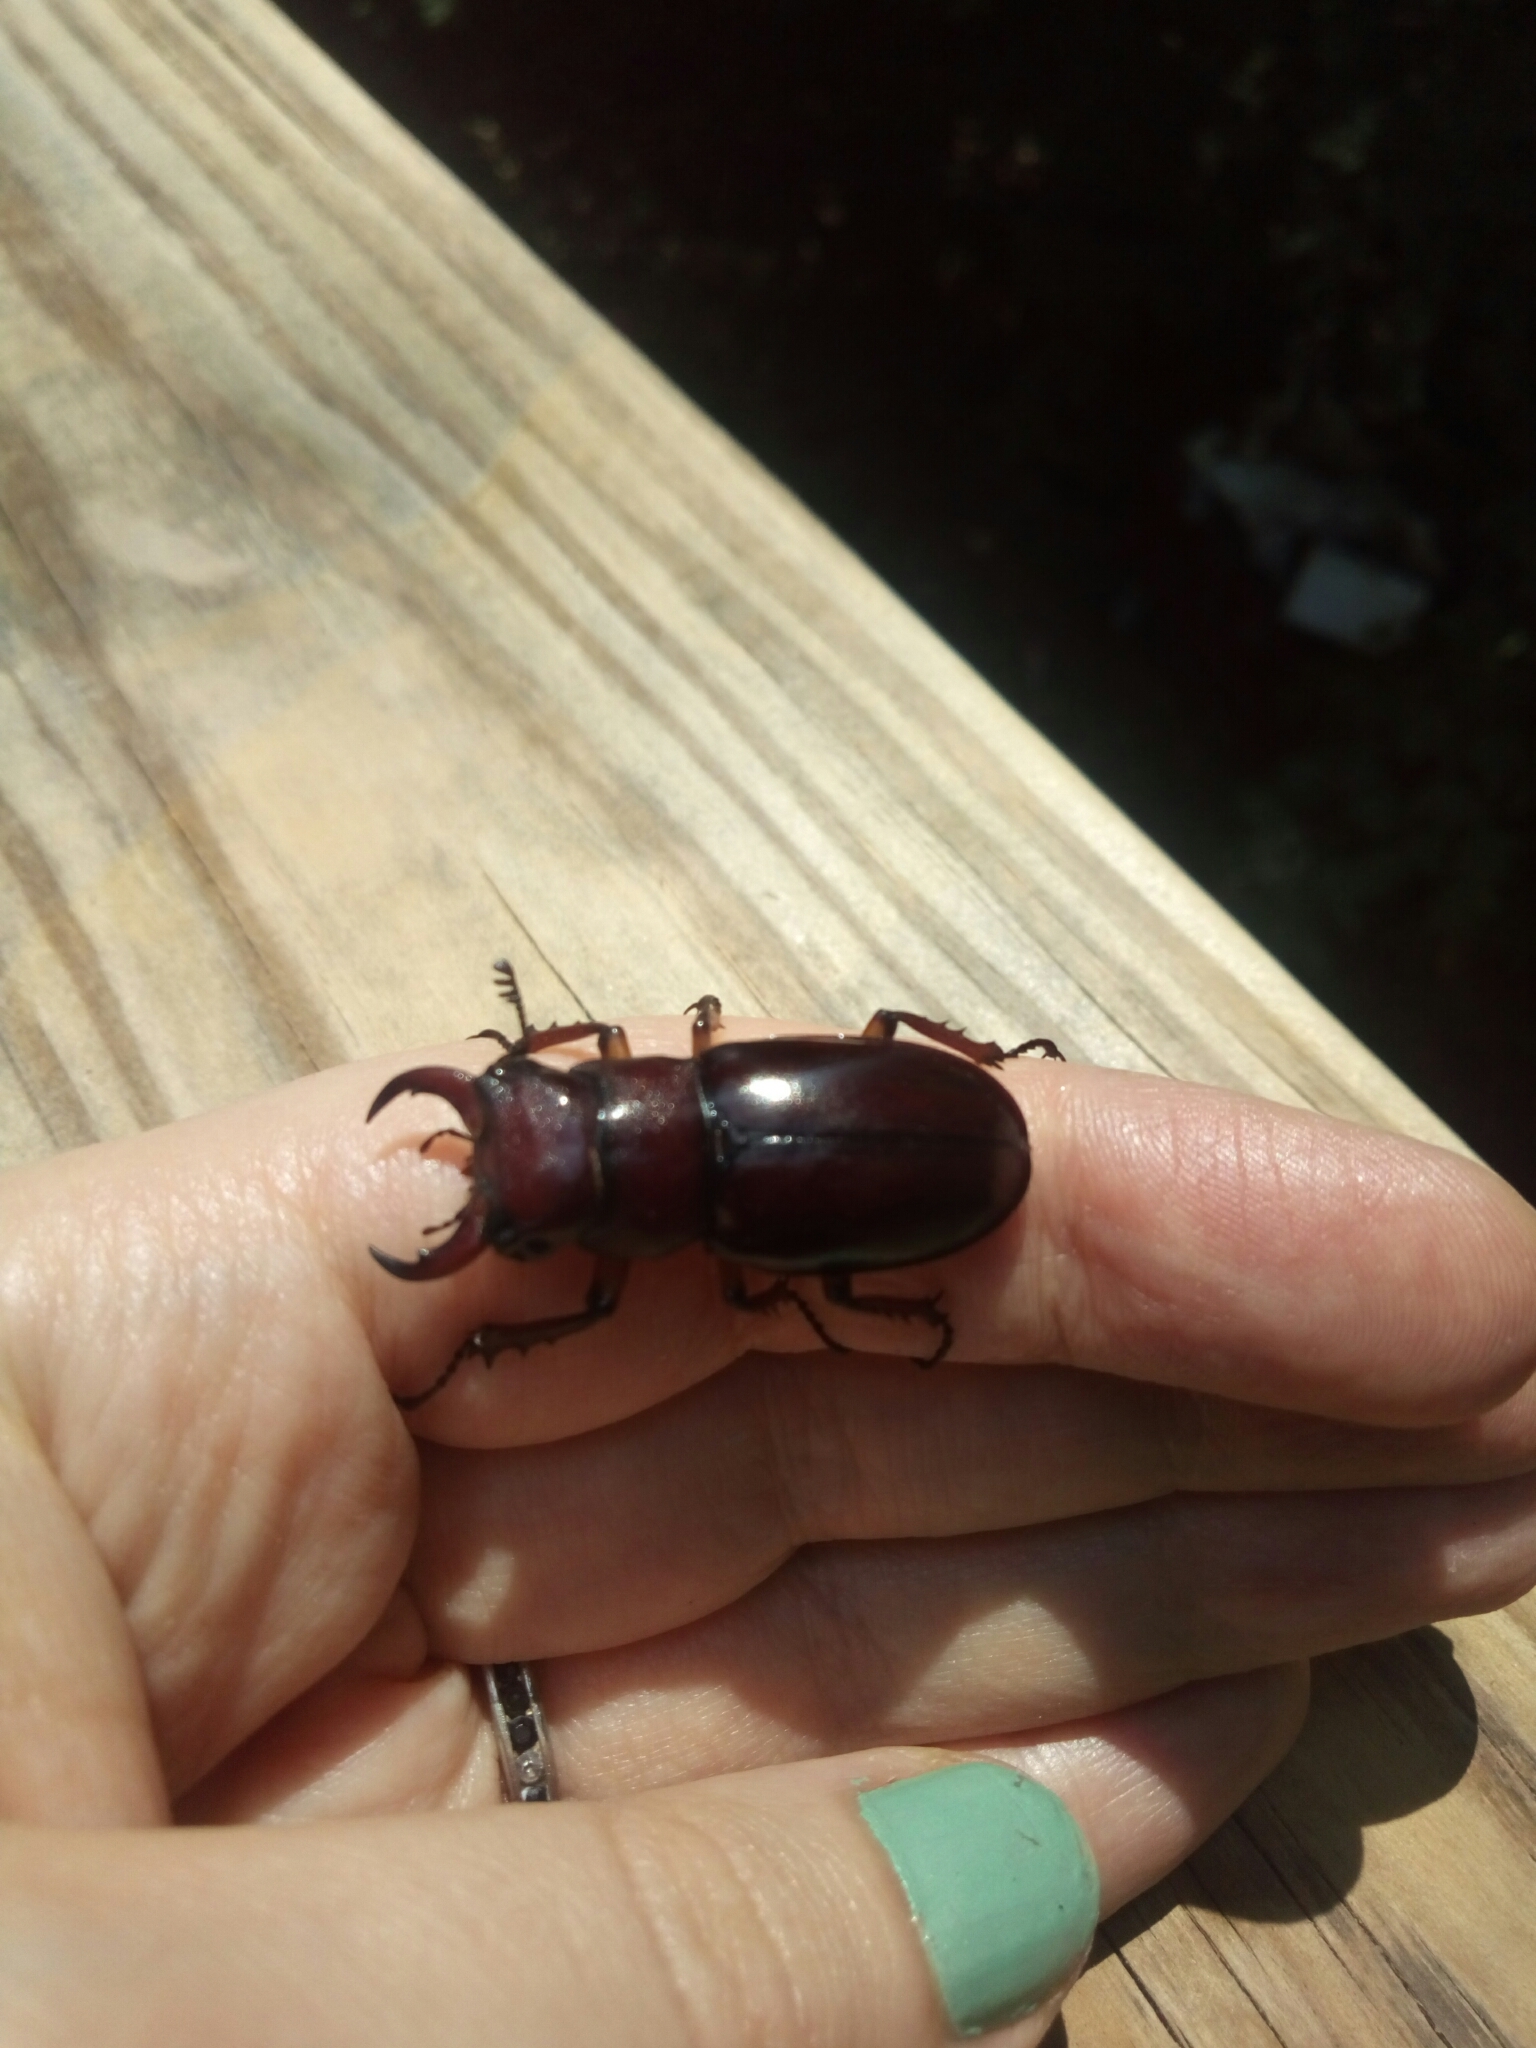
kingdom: Animalia
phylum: Arthropoda
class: Insecta
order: Coleoptera
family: Lucanidae
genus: Lucanus
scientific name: Lucanus capreolus
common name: Stag beetle
